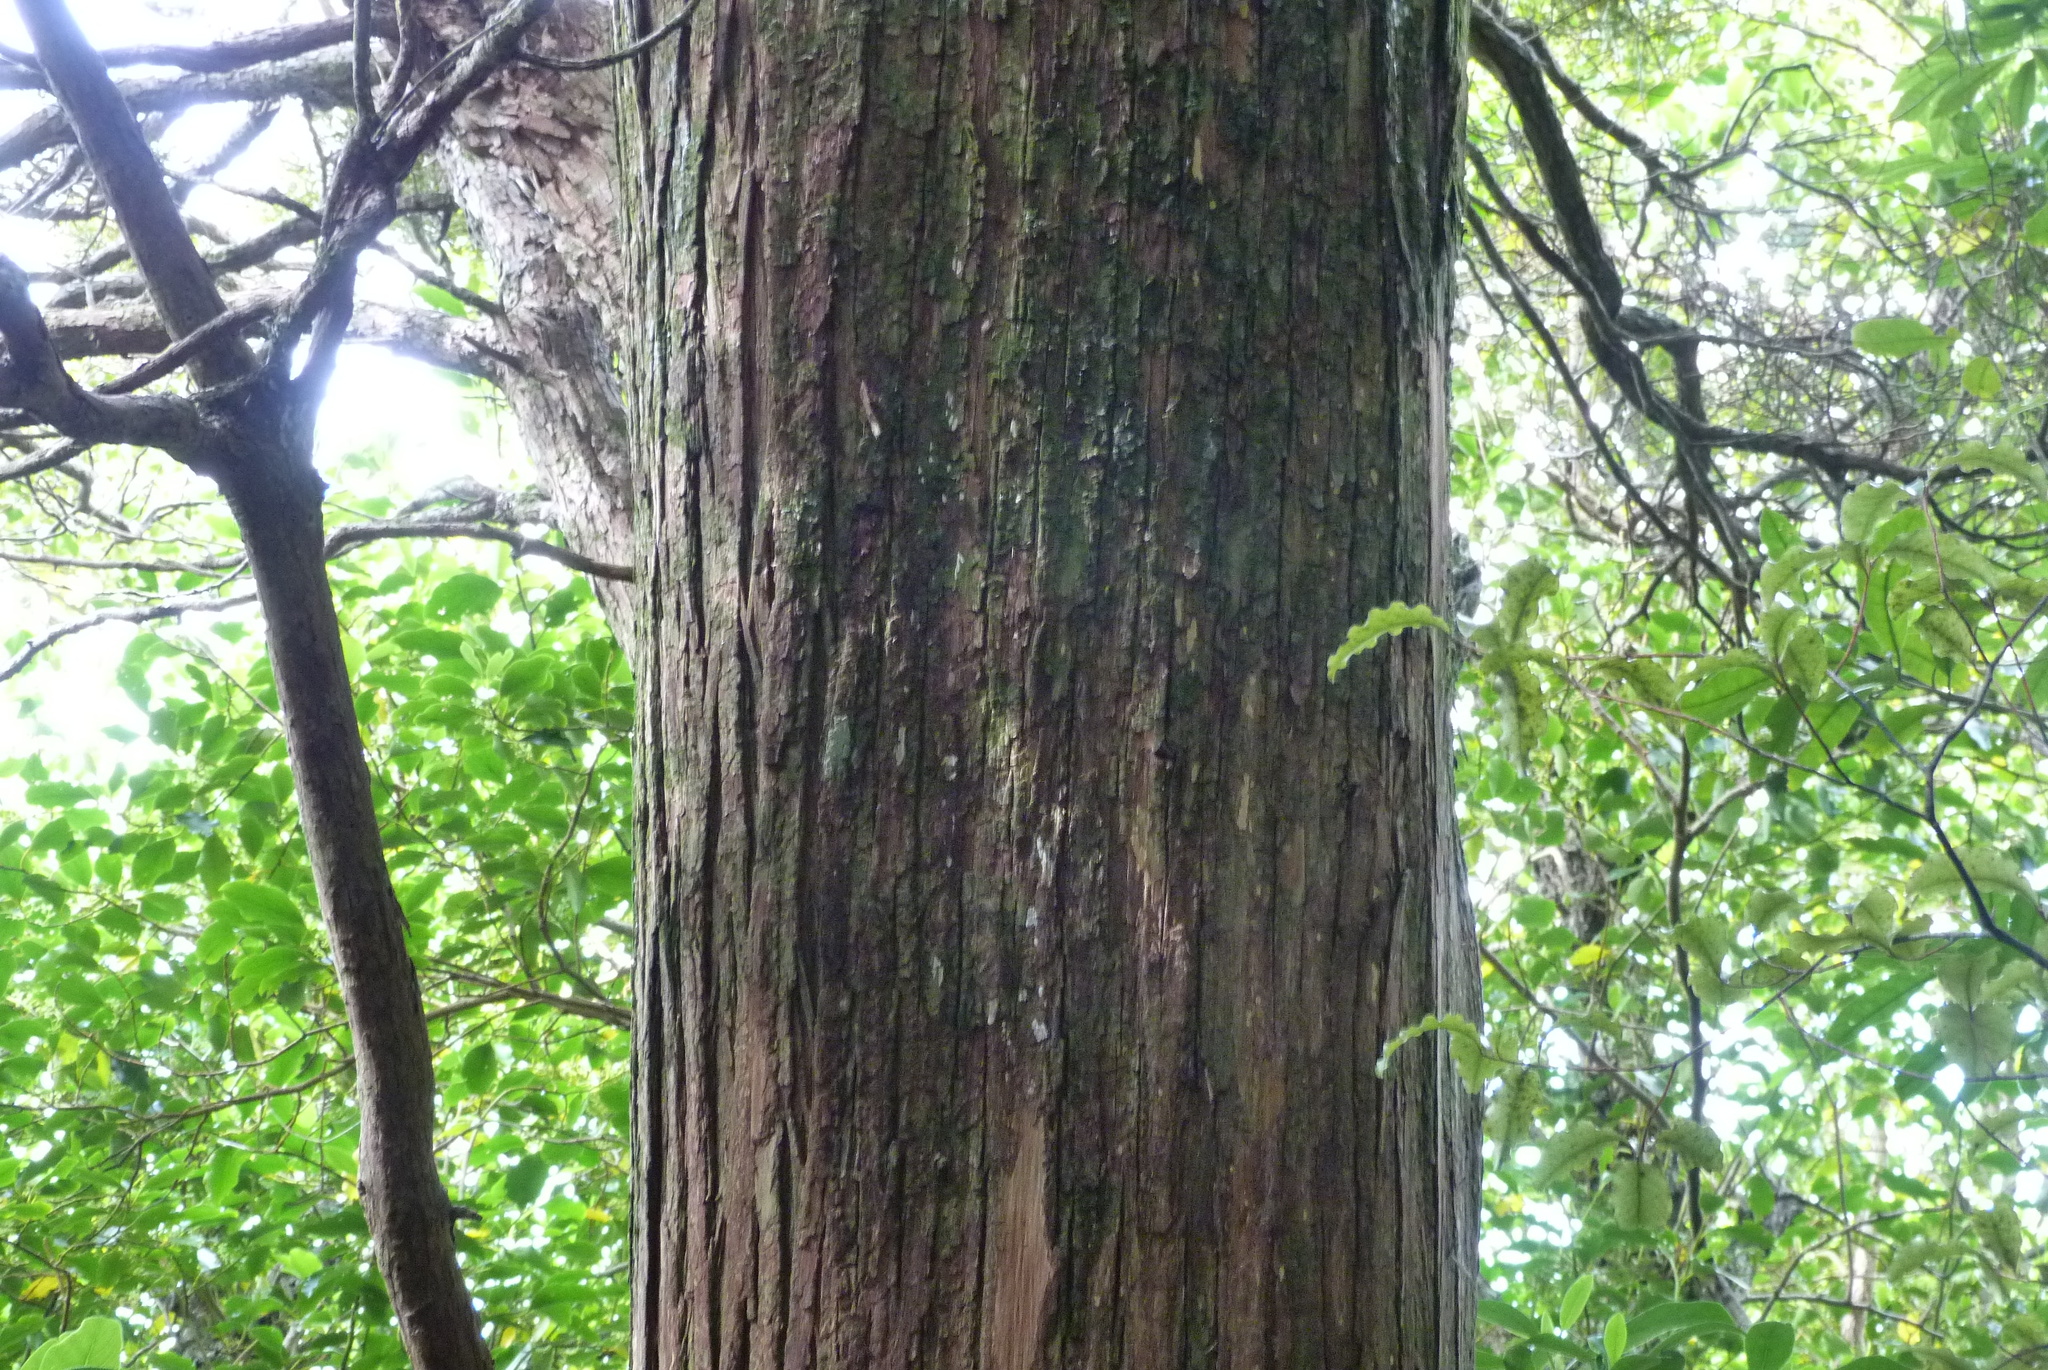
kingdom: Plantae
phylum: Tracheophyta
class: Pinopsida
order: Pinales
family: Podocarpaceae
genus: Podocarpus
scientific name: Podocarpus totara
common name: Totara
